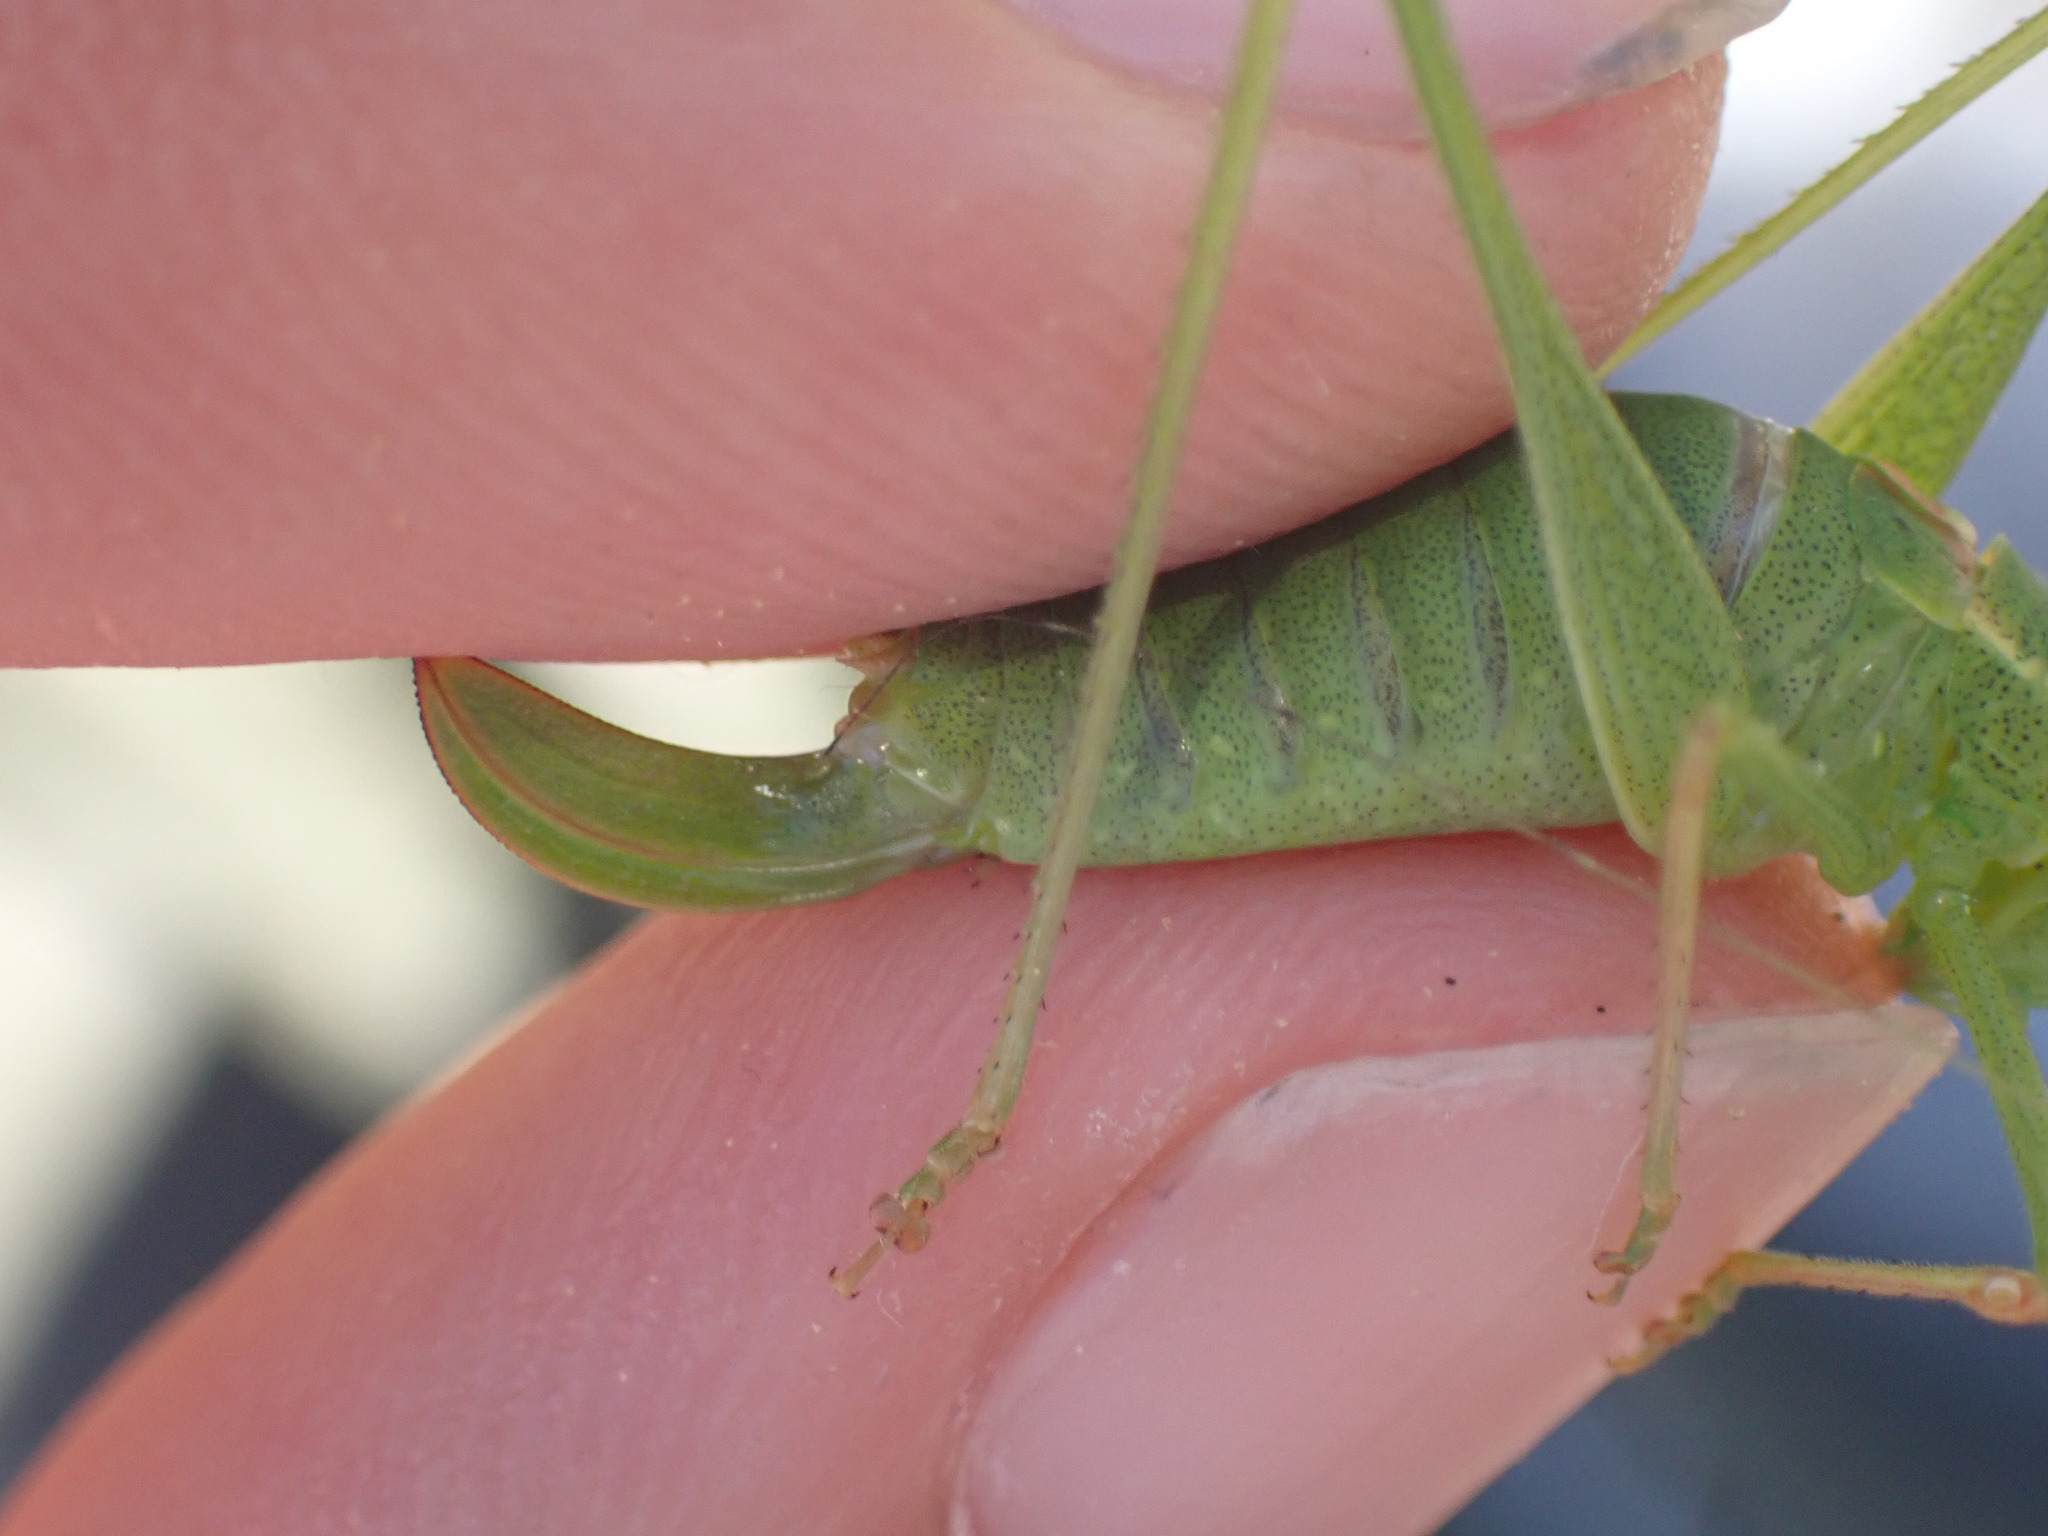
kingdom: Animalia
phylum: Arthropoda
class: Insecta
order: Orthoptera
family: Tettigoniidae
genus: Leptophyes
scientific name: Leptophyes punctatissima
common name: Speckled bush-cricket
